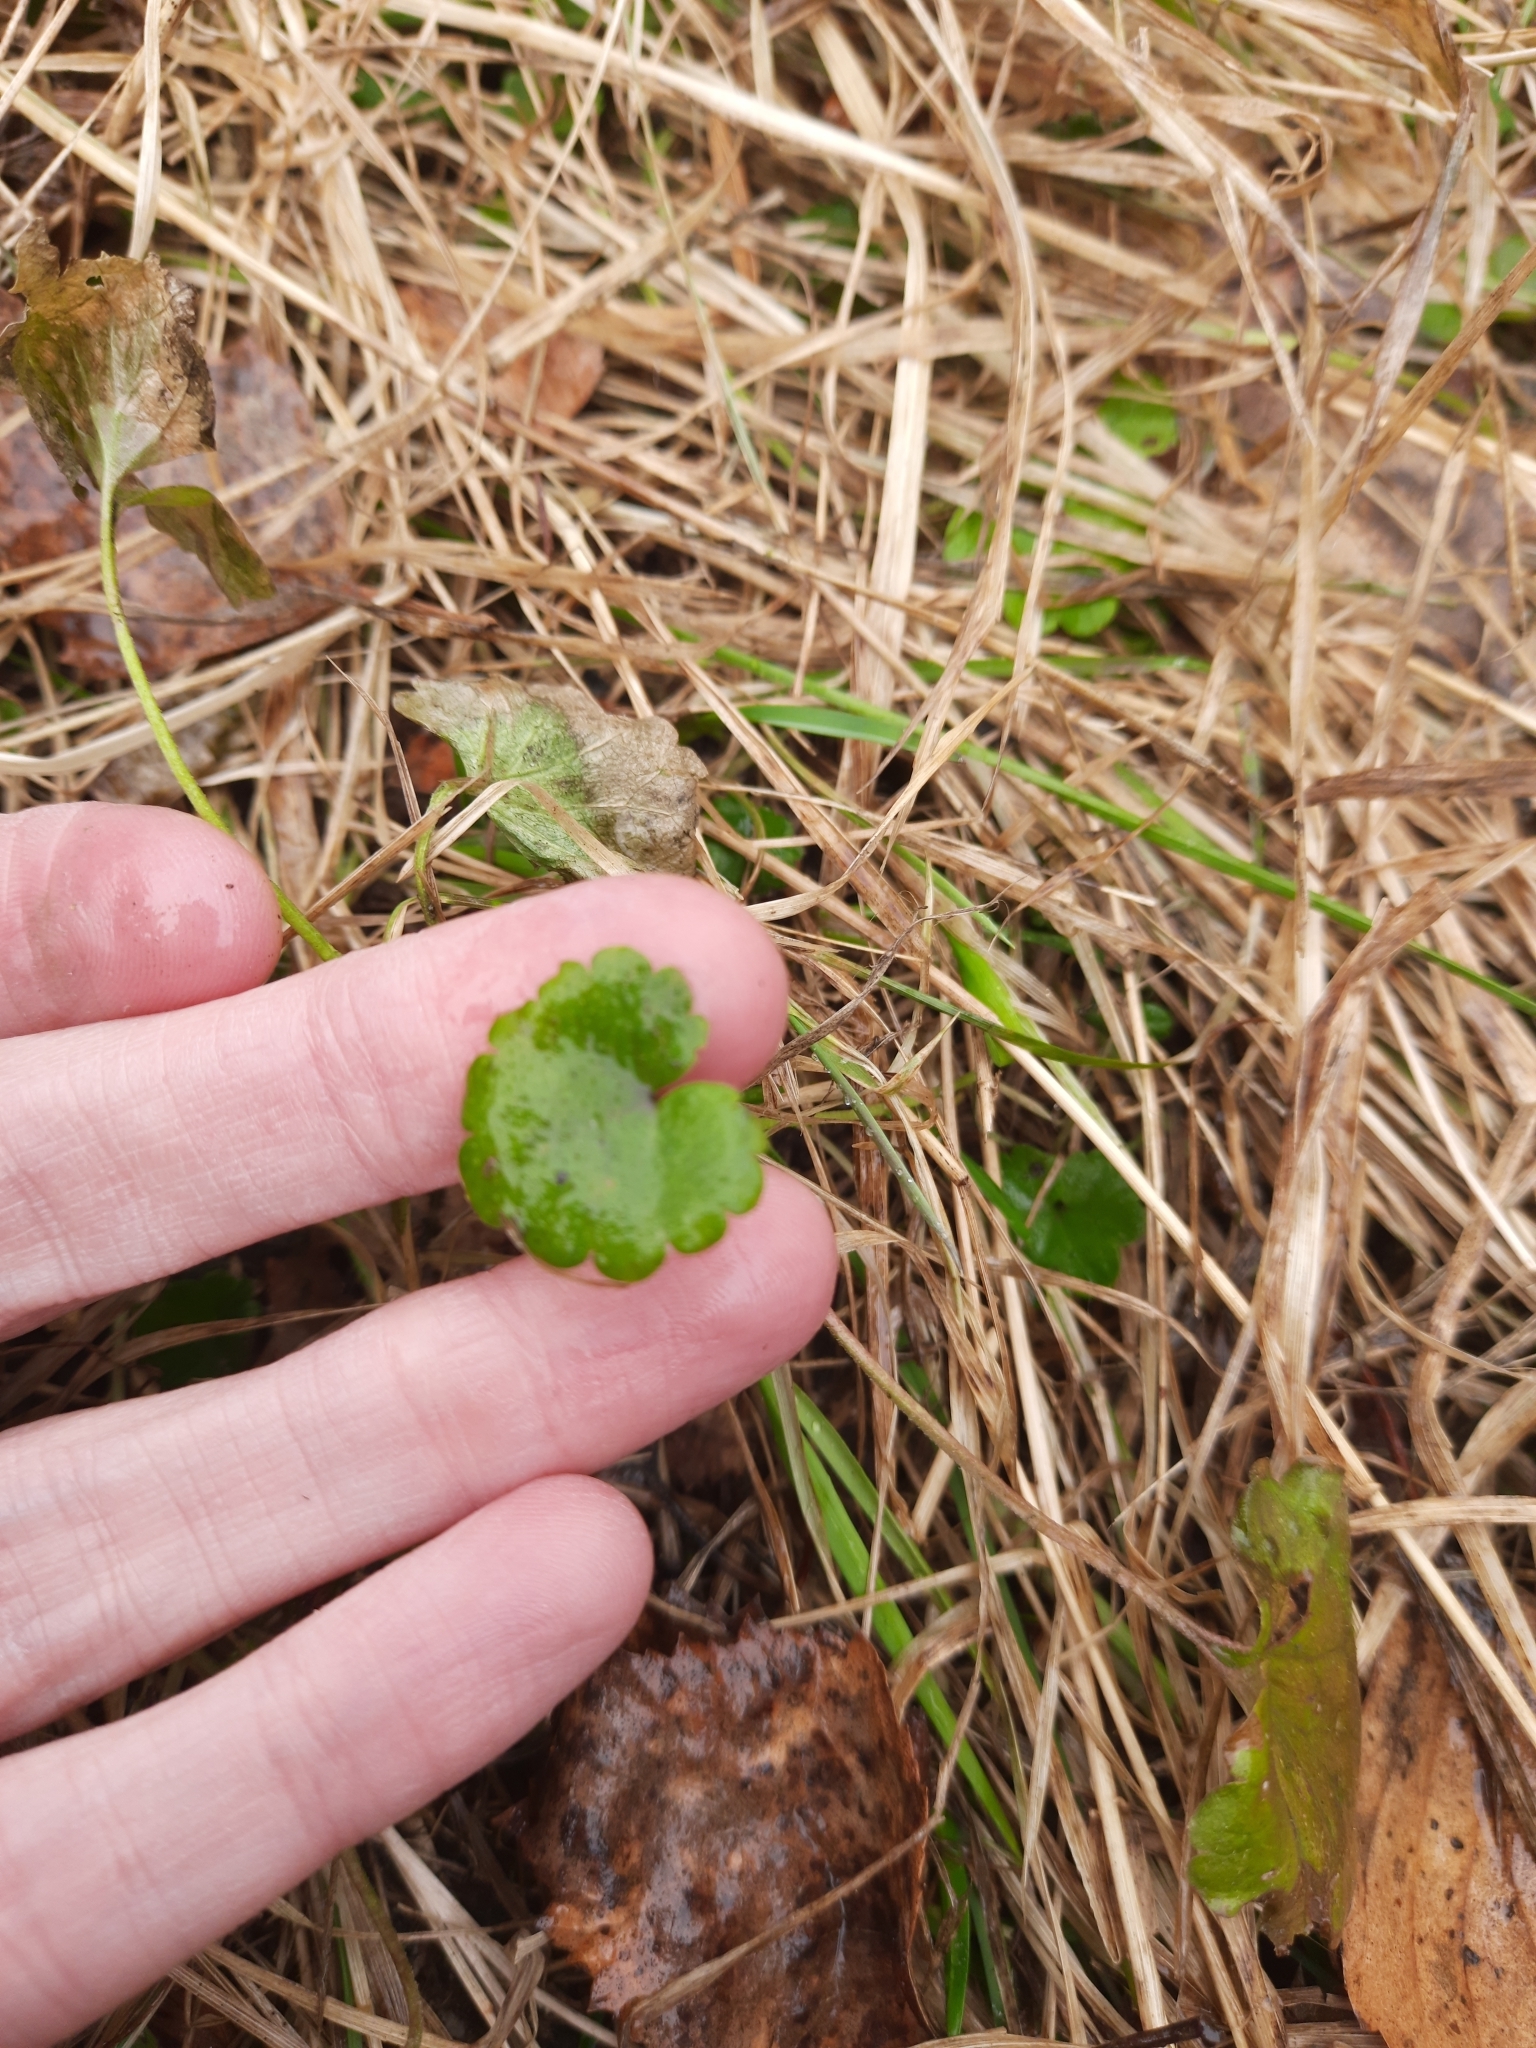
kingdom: Plantae
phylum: Tracheophyta
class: Magnoliopsida
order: Lamiales
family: Lamiaceae
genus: Glechoma
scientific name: Glechoma hederacea
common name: Ground ivy
